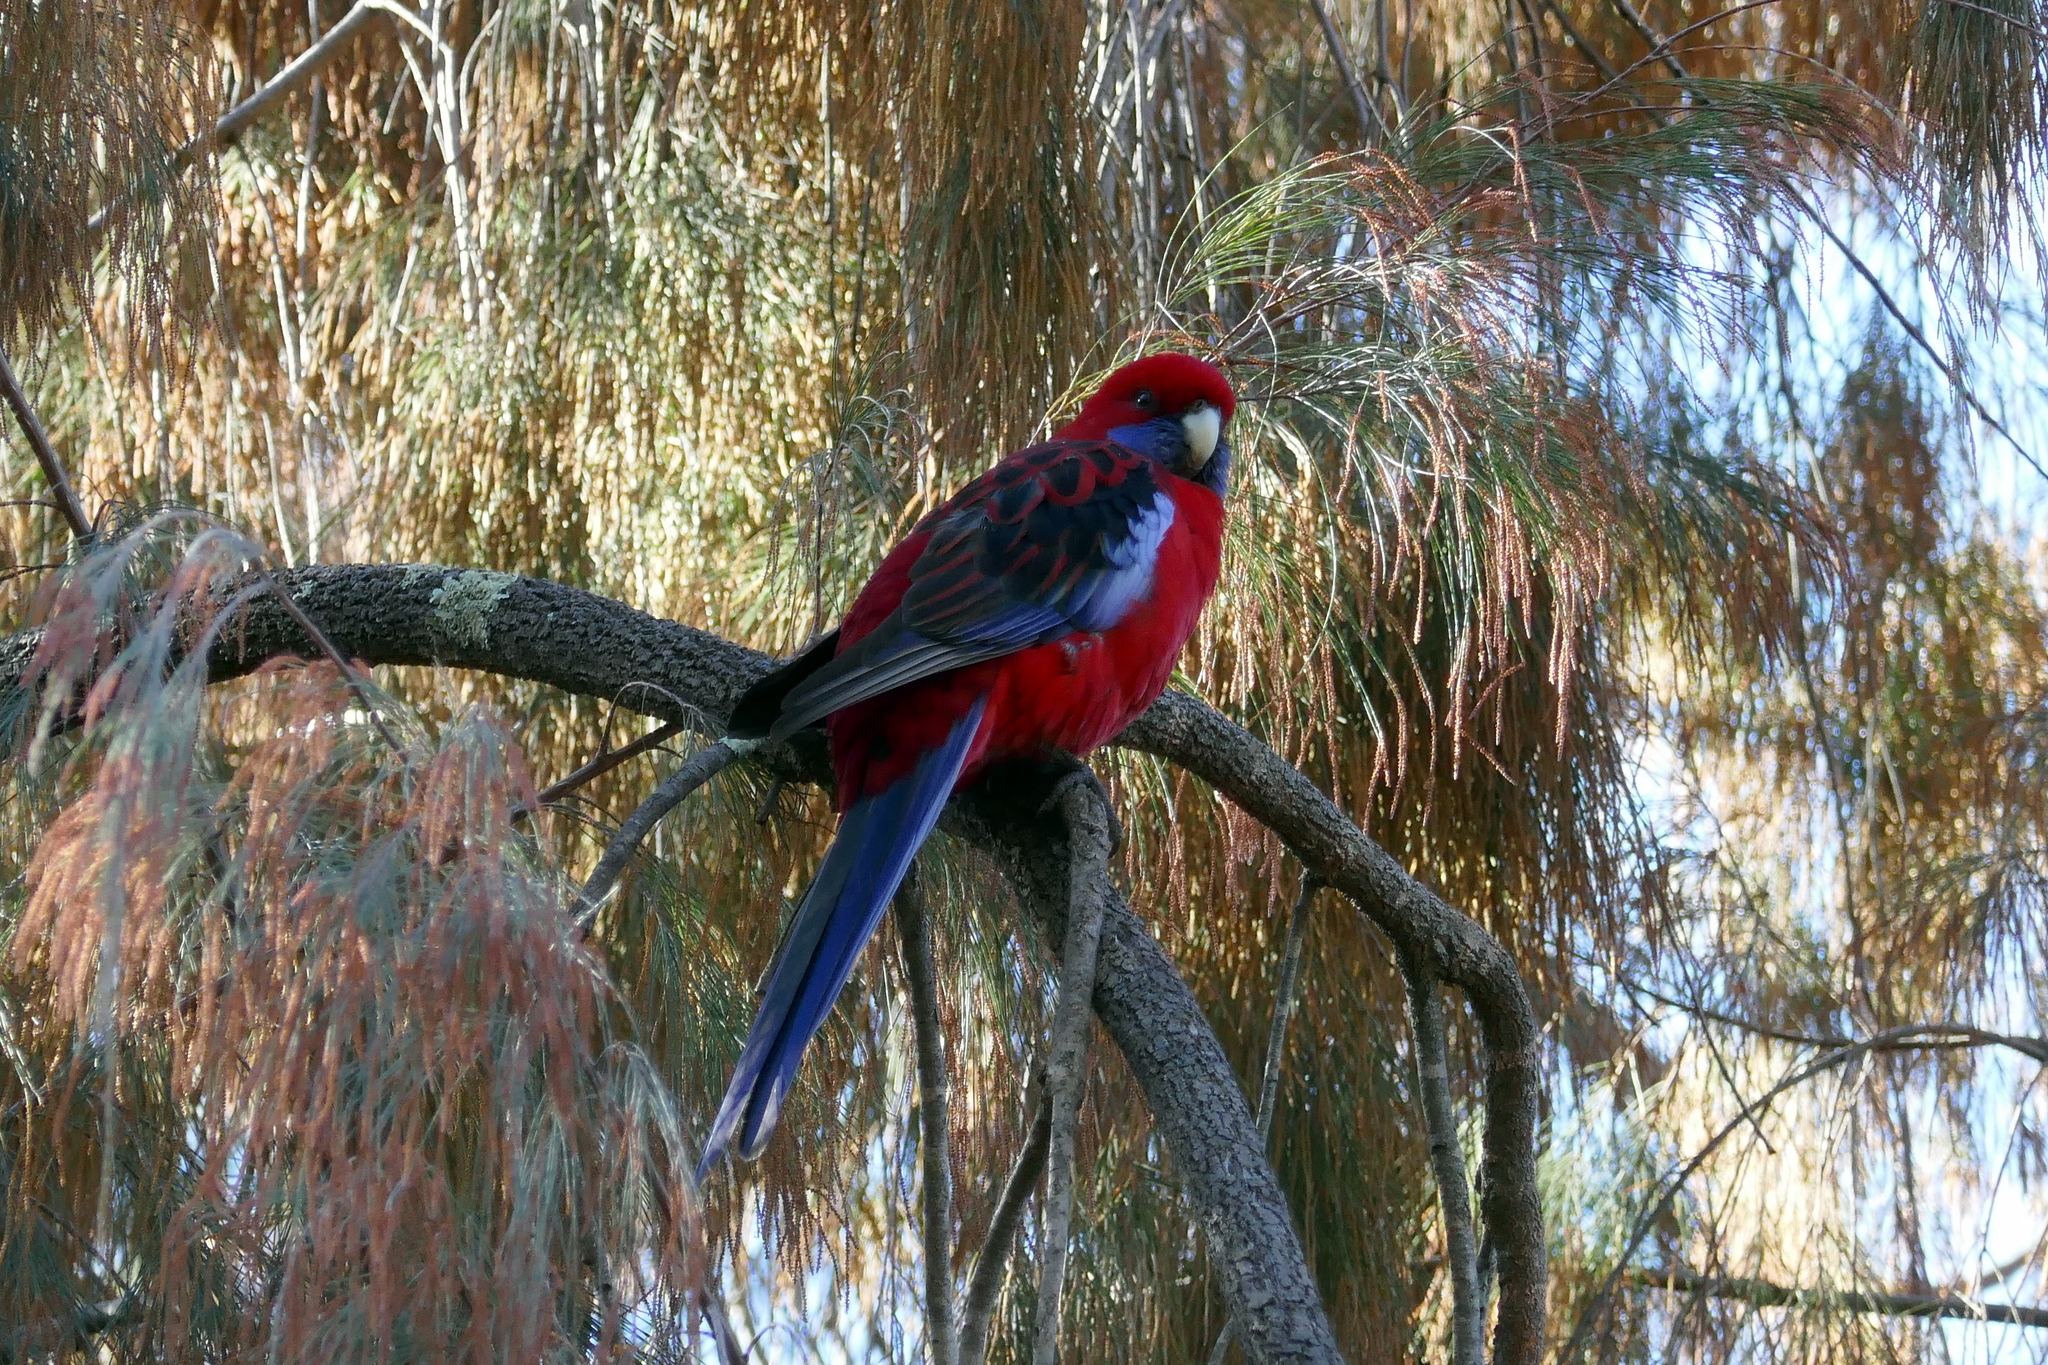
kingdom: Animalia
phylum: Chordata
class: Aves
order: Psittaciformes
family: Psittacidae
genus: Platycercus
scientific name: Platycercus elegans
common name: Crimson rosella
